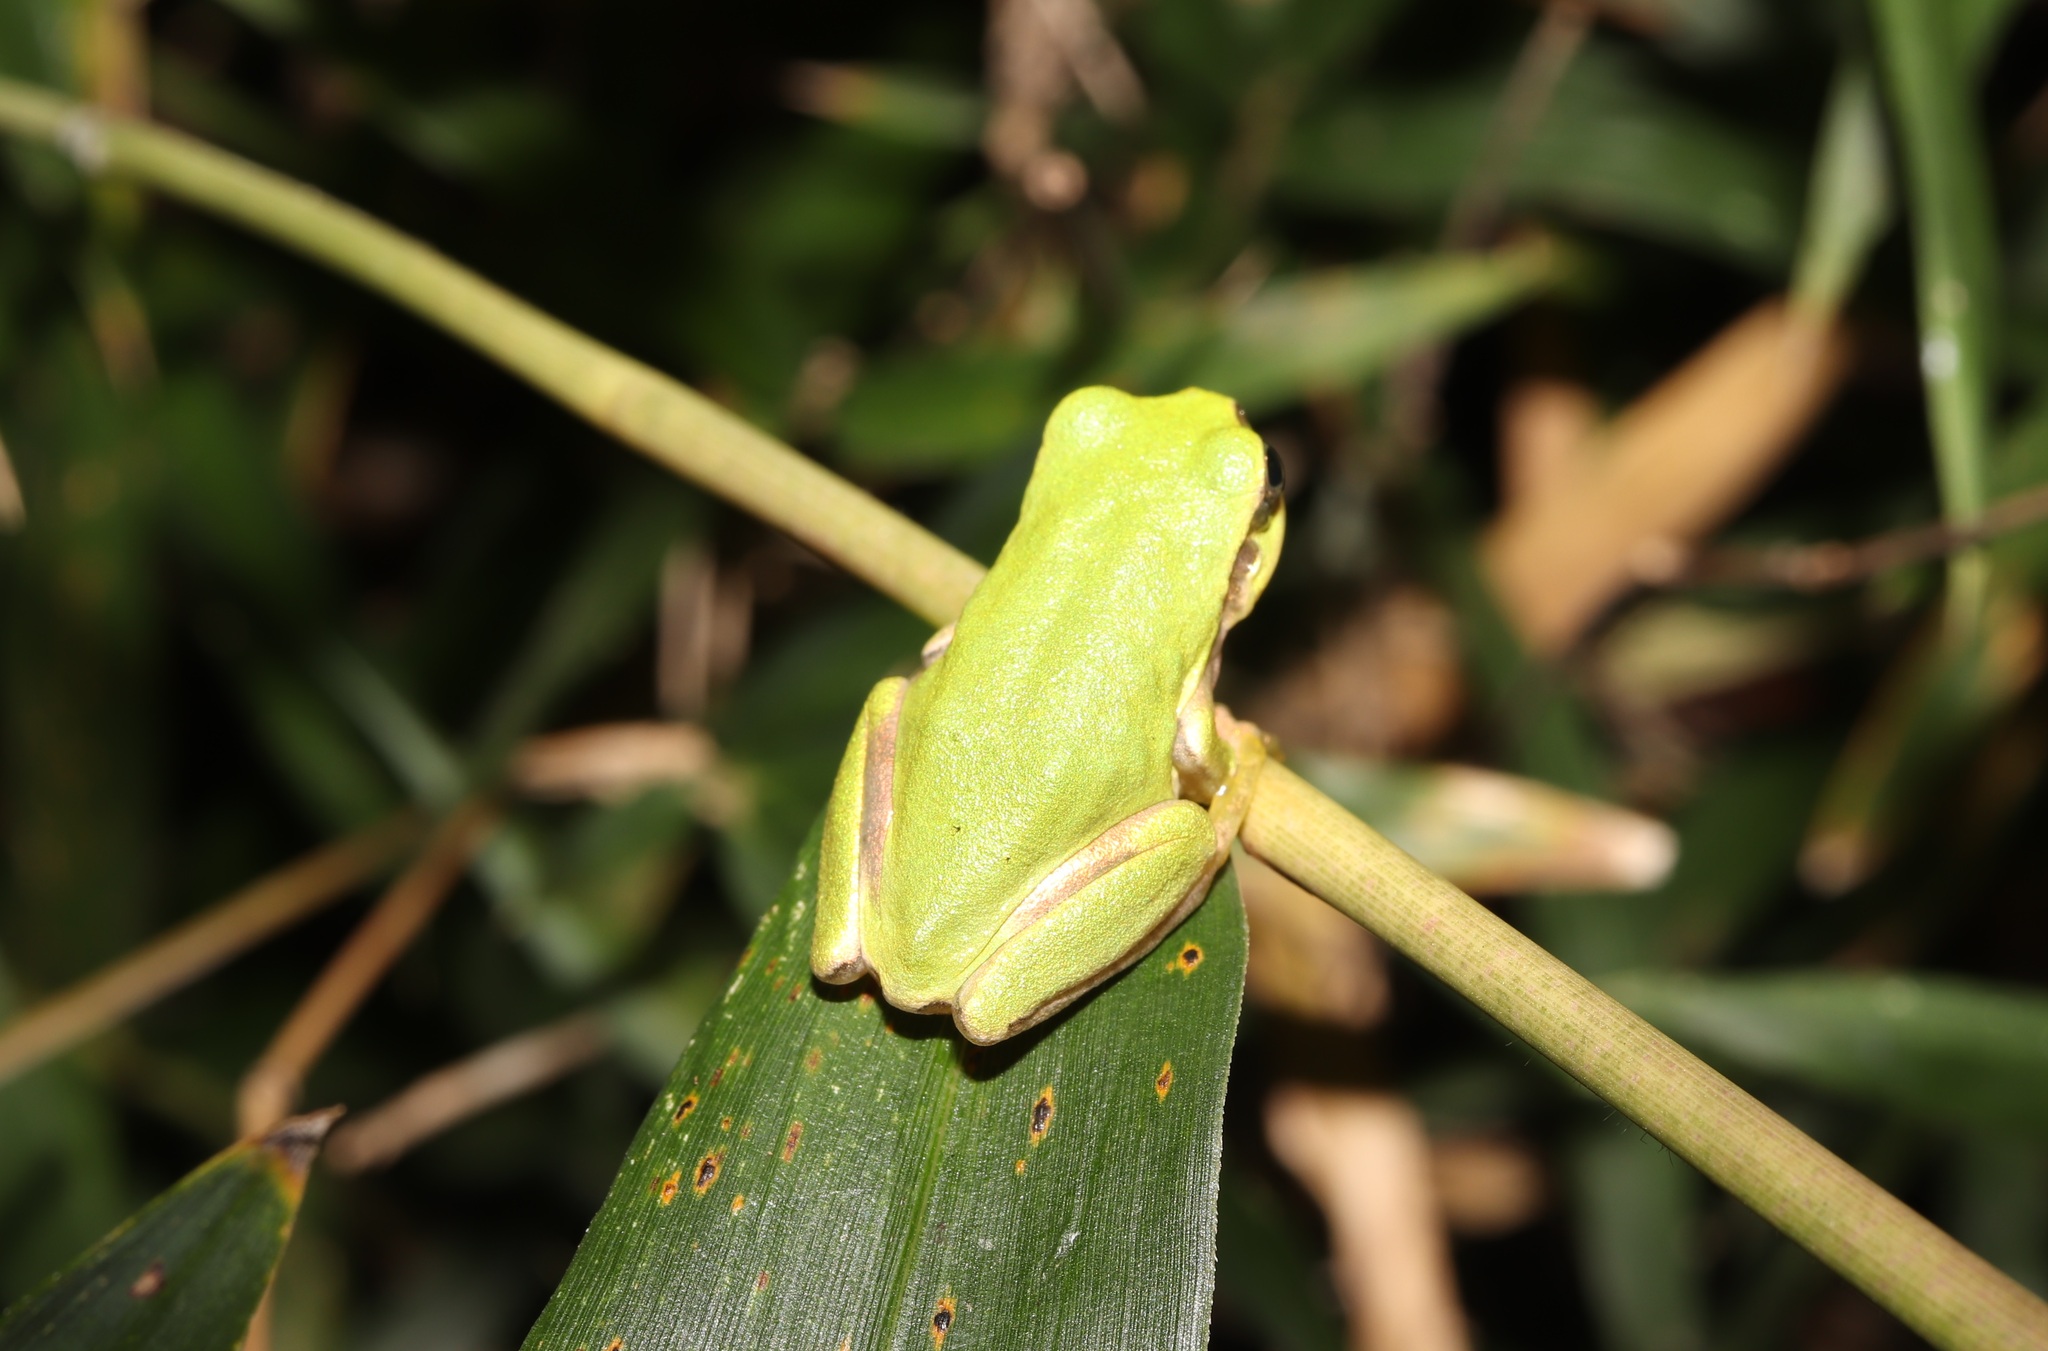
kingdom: Animalia
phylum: Chordata
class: Amphibia
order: Anura
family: Hylidae
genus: Dryophytes
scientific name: Dryophytes japonicus
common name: Japanese treefrog
